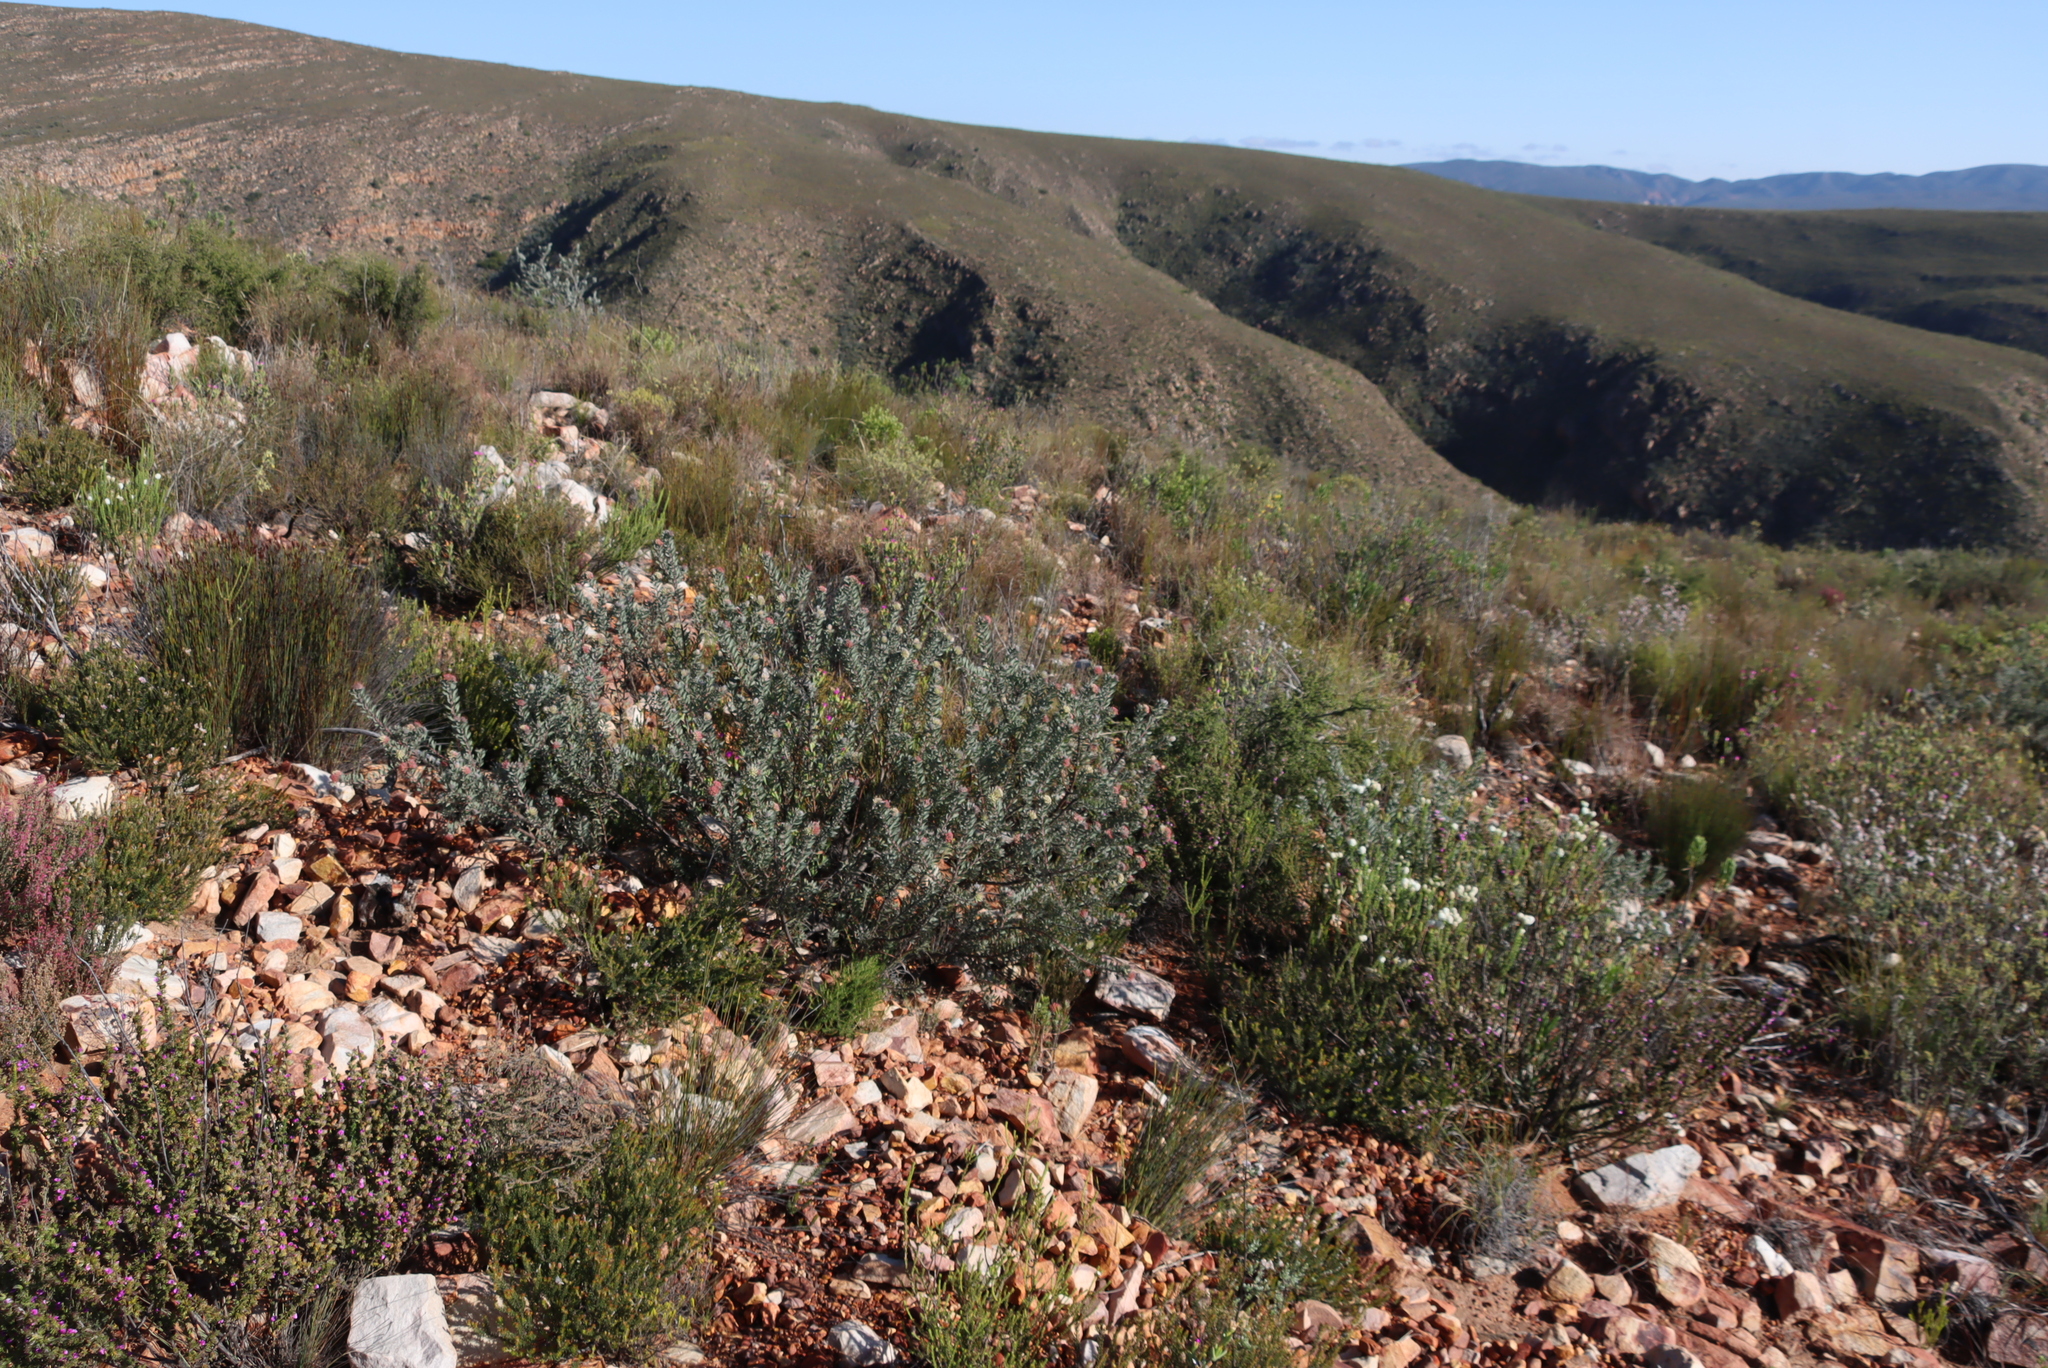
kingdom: Plantae
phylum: Tracheophyta
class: Magnoliopsida
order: Proteales
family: Proteaceae
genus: Leucospermum
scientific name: Leucospermum wittebergense
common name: Swartberg pincushion
